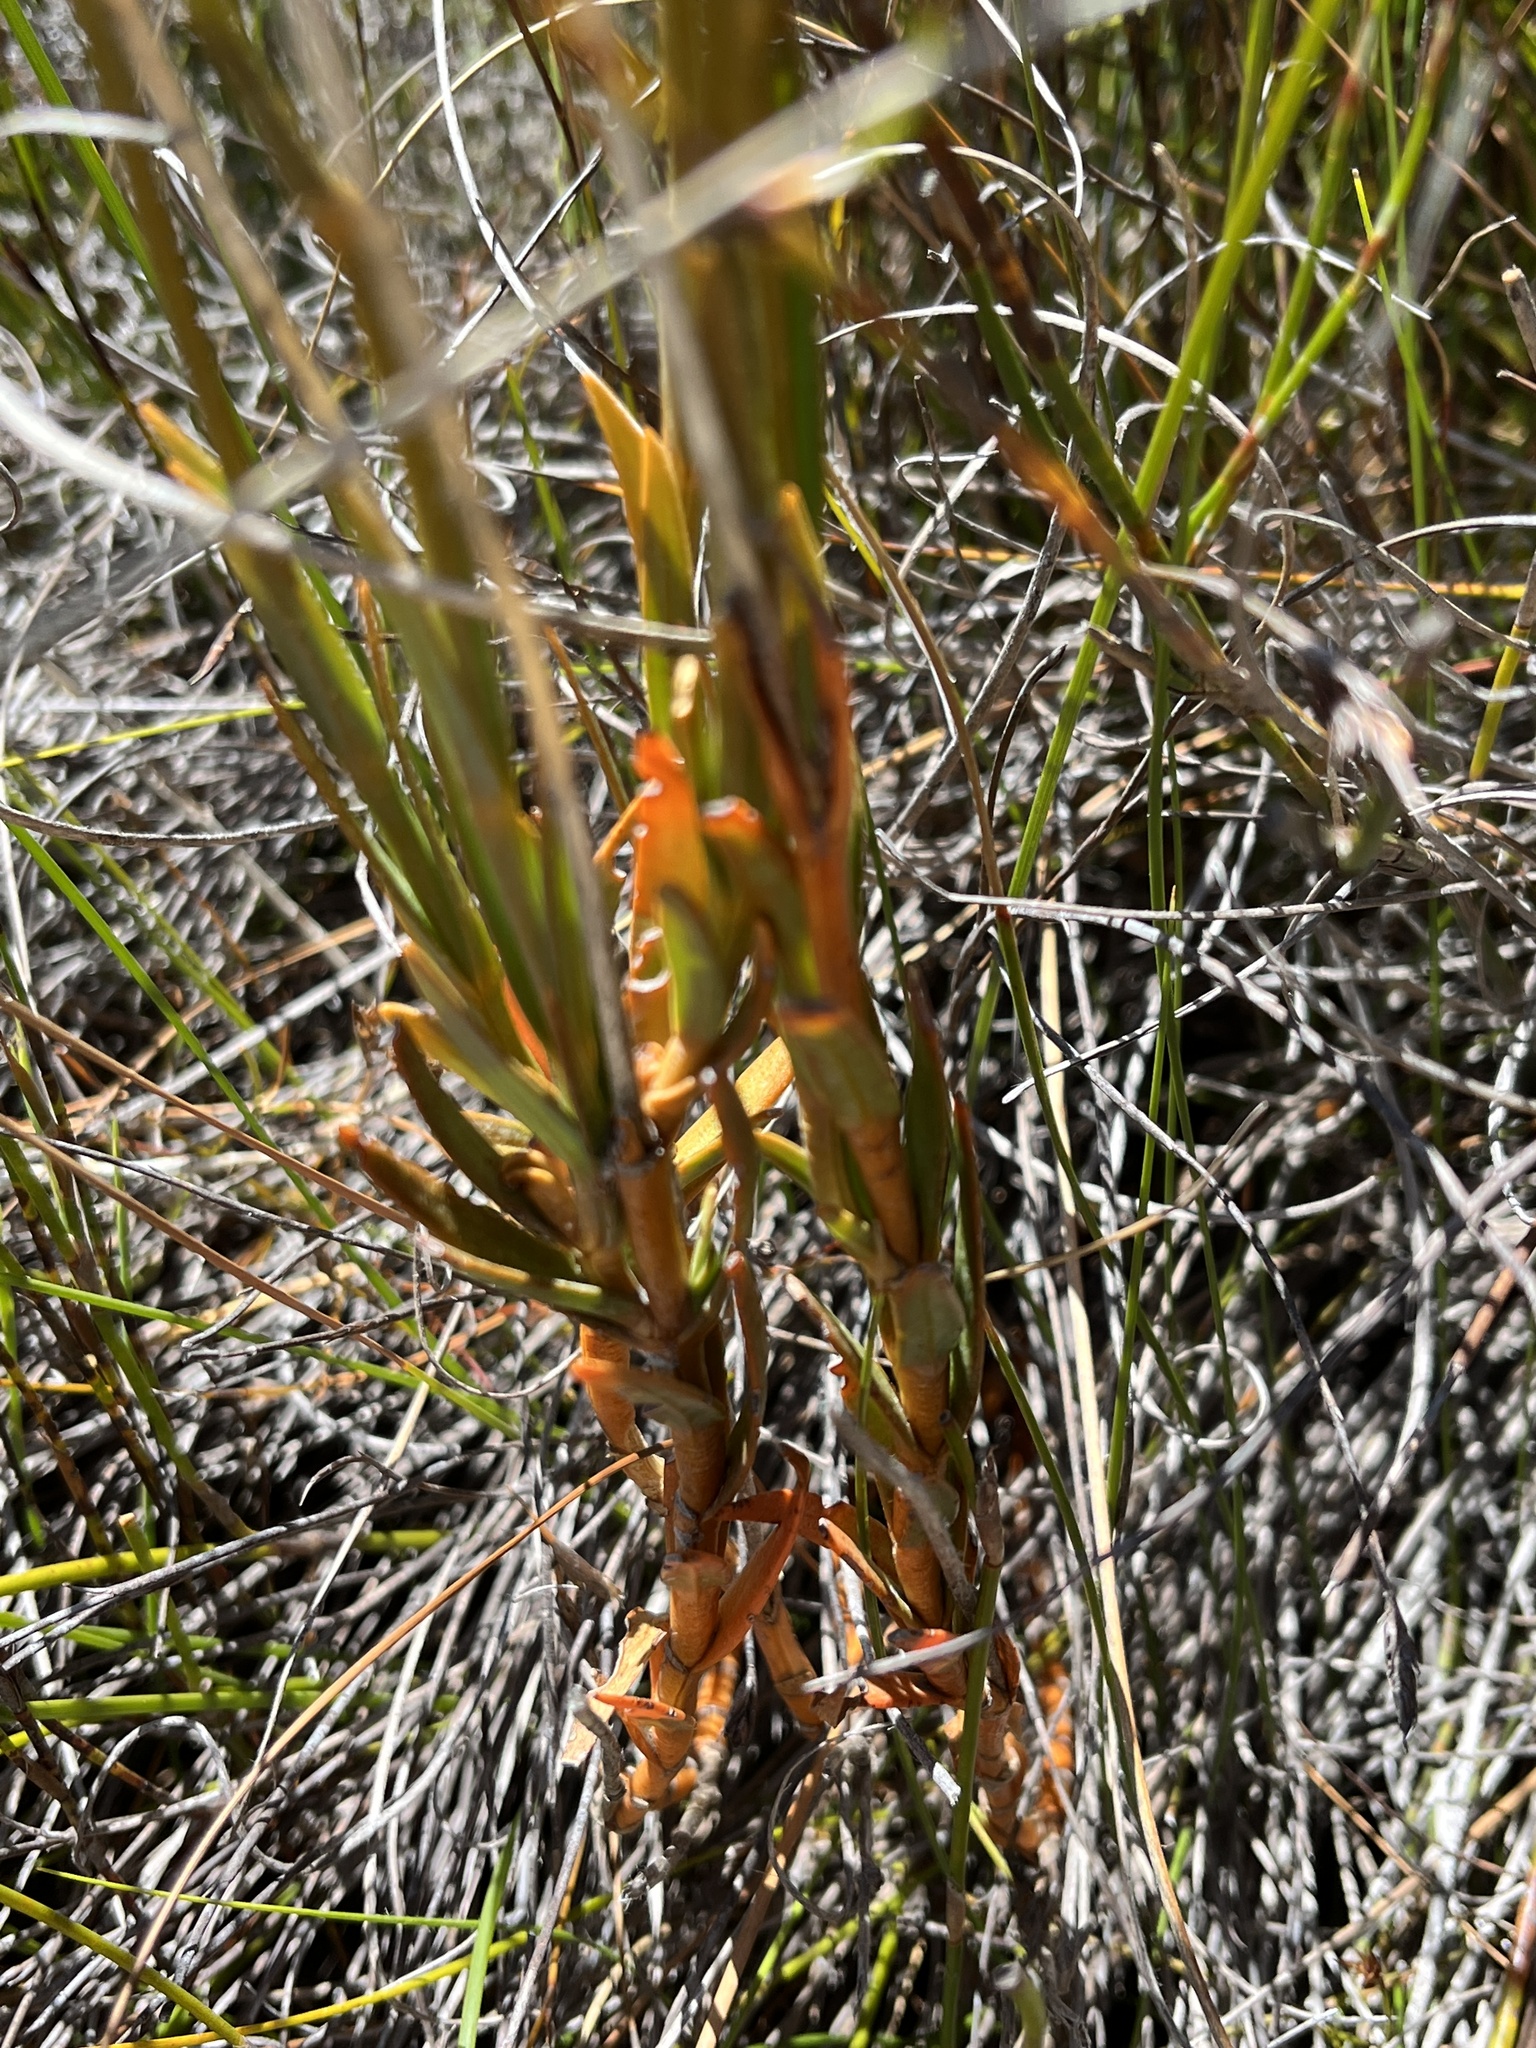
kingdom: Plantae
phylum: Tracheophyta
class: Magnoliopsida
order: Gentianales
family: Gentianaceae
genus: Chironia
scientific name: Chironia jasminoides
